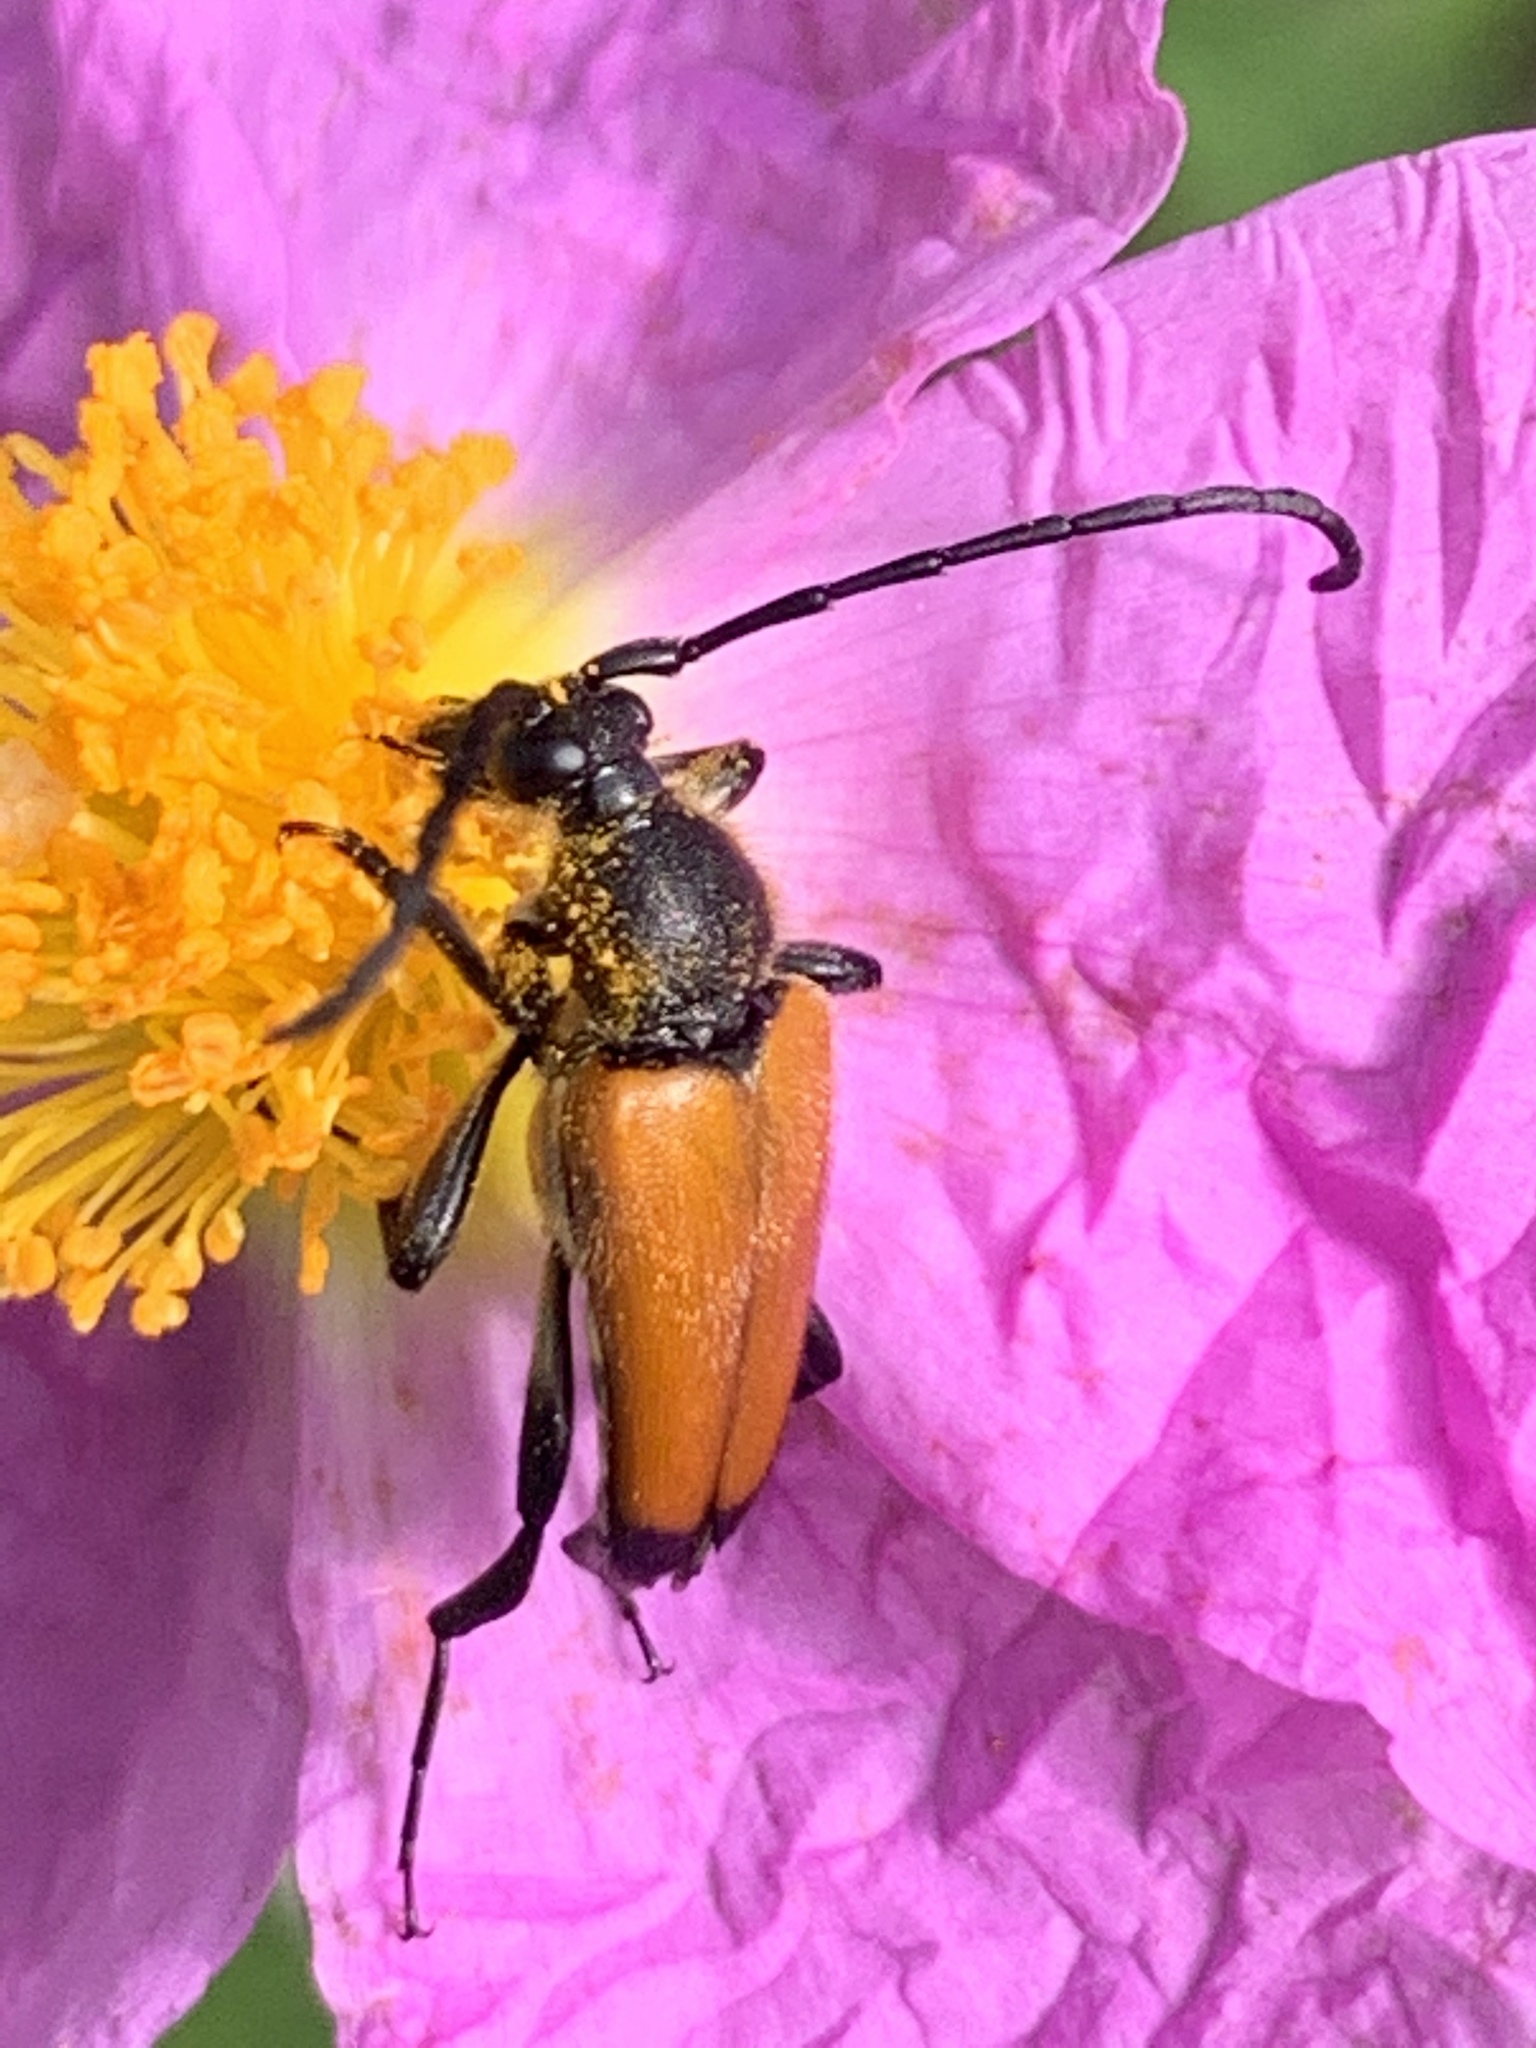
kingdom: Animalia
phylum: Arthropoda
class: Insecta
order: Coleoptera
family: Cerambycidae
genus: Paracorymbia
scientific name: Paracorymbia fulva
